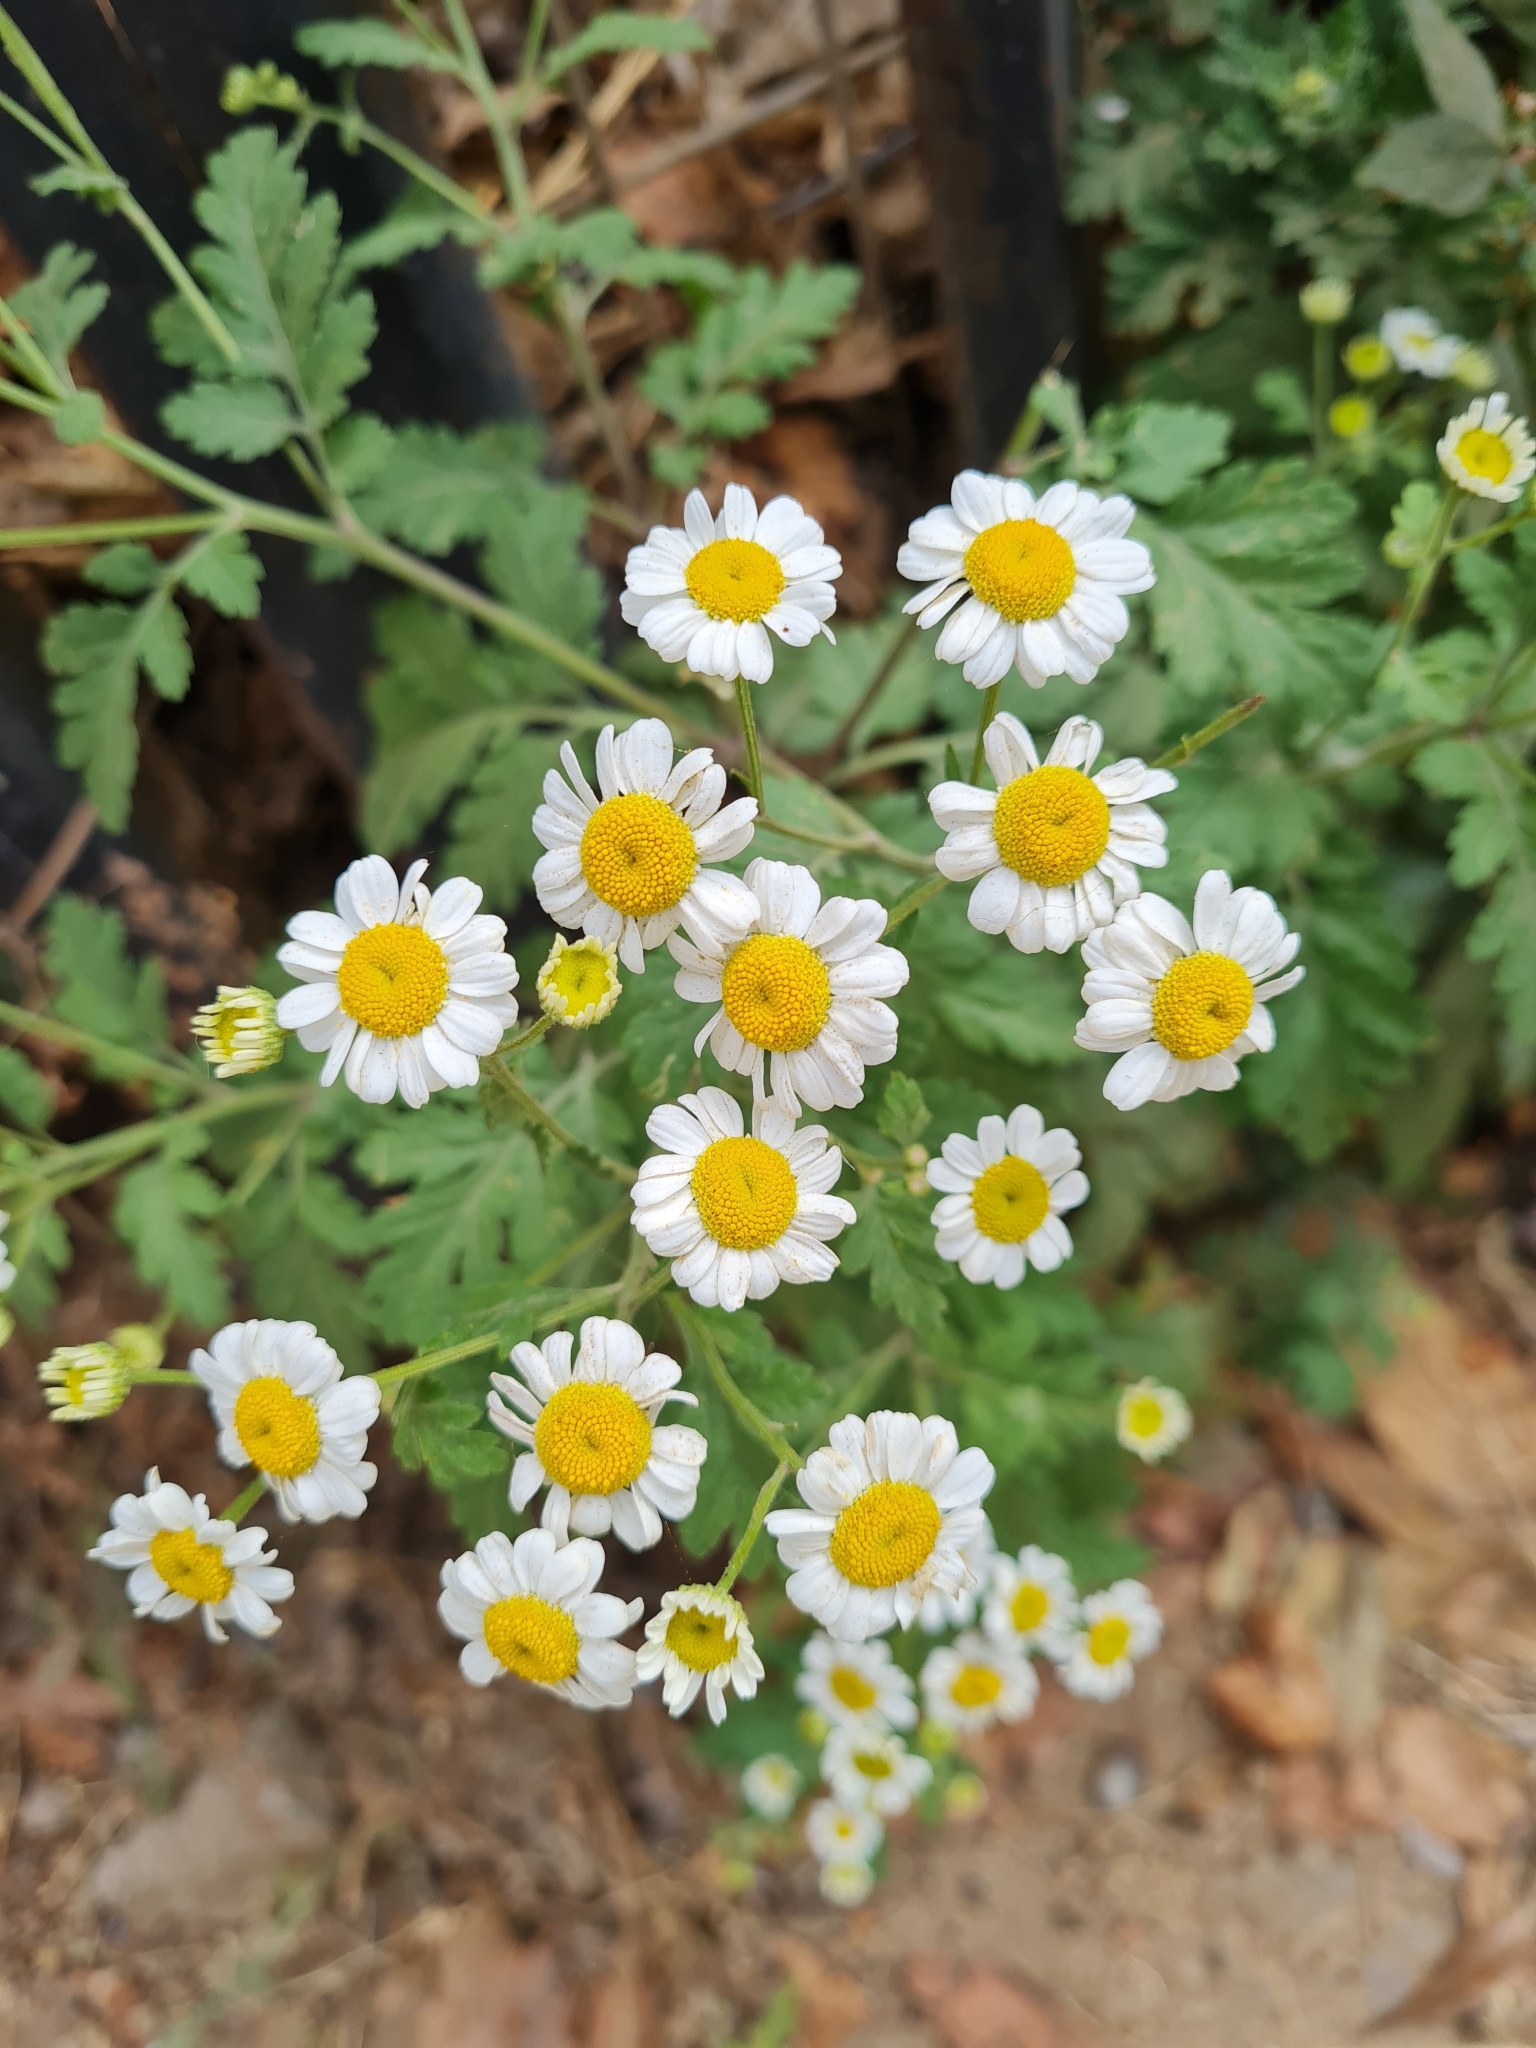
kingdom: Plantae
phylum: Tracheophyta
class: Magnoliopsida
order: Asterales
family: Asteraceae
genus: Tanacetum
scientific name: Tanacetum parthenium
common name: Feverfew
